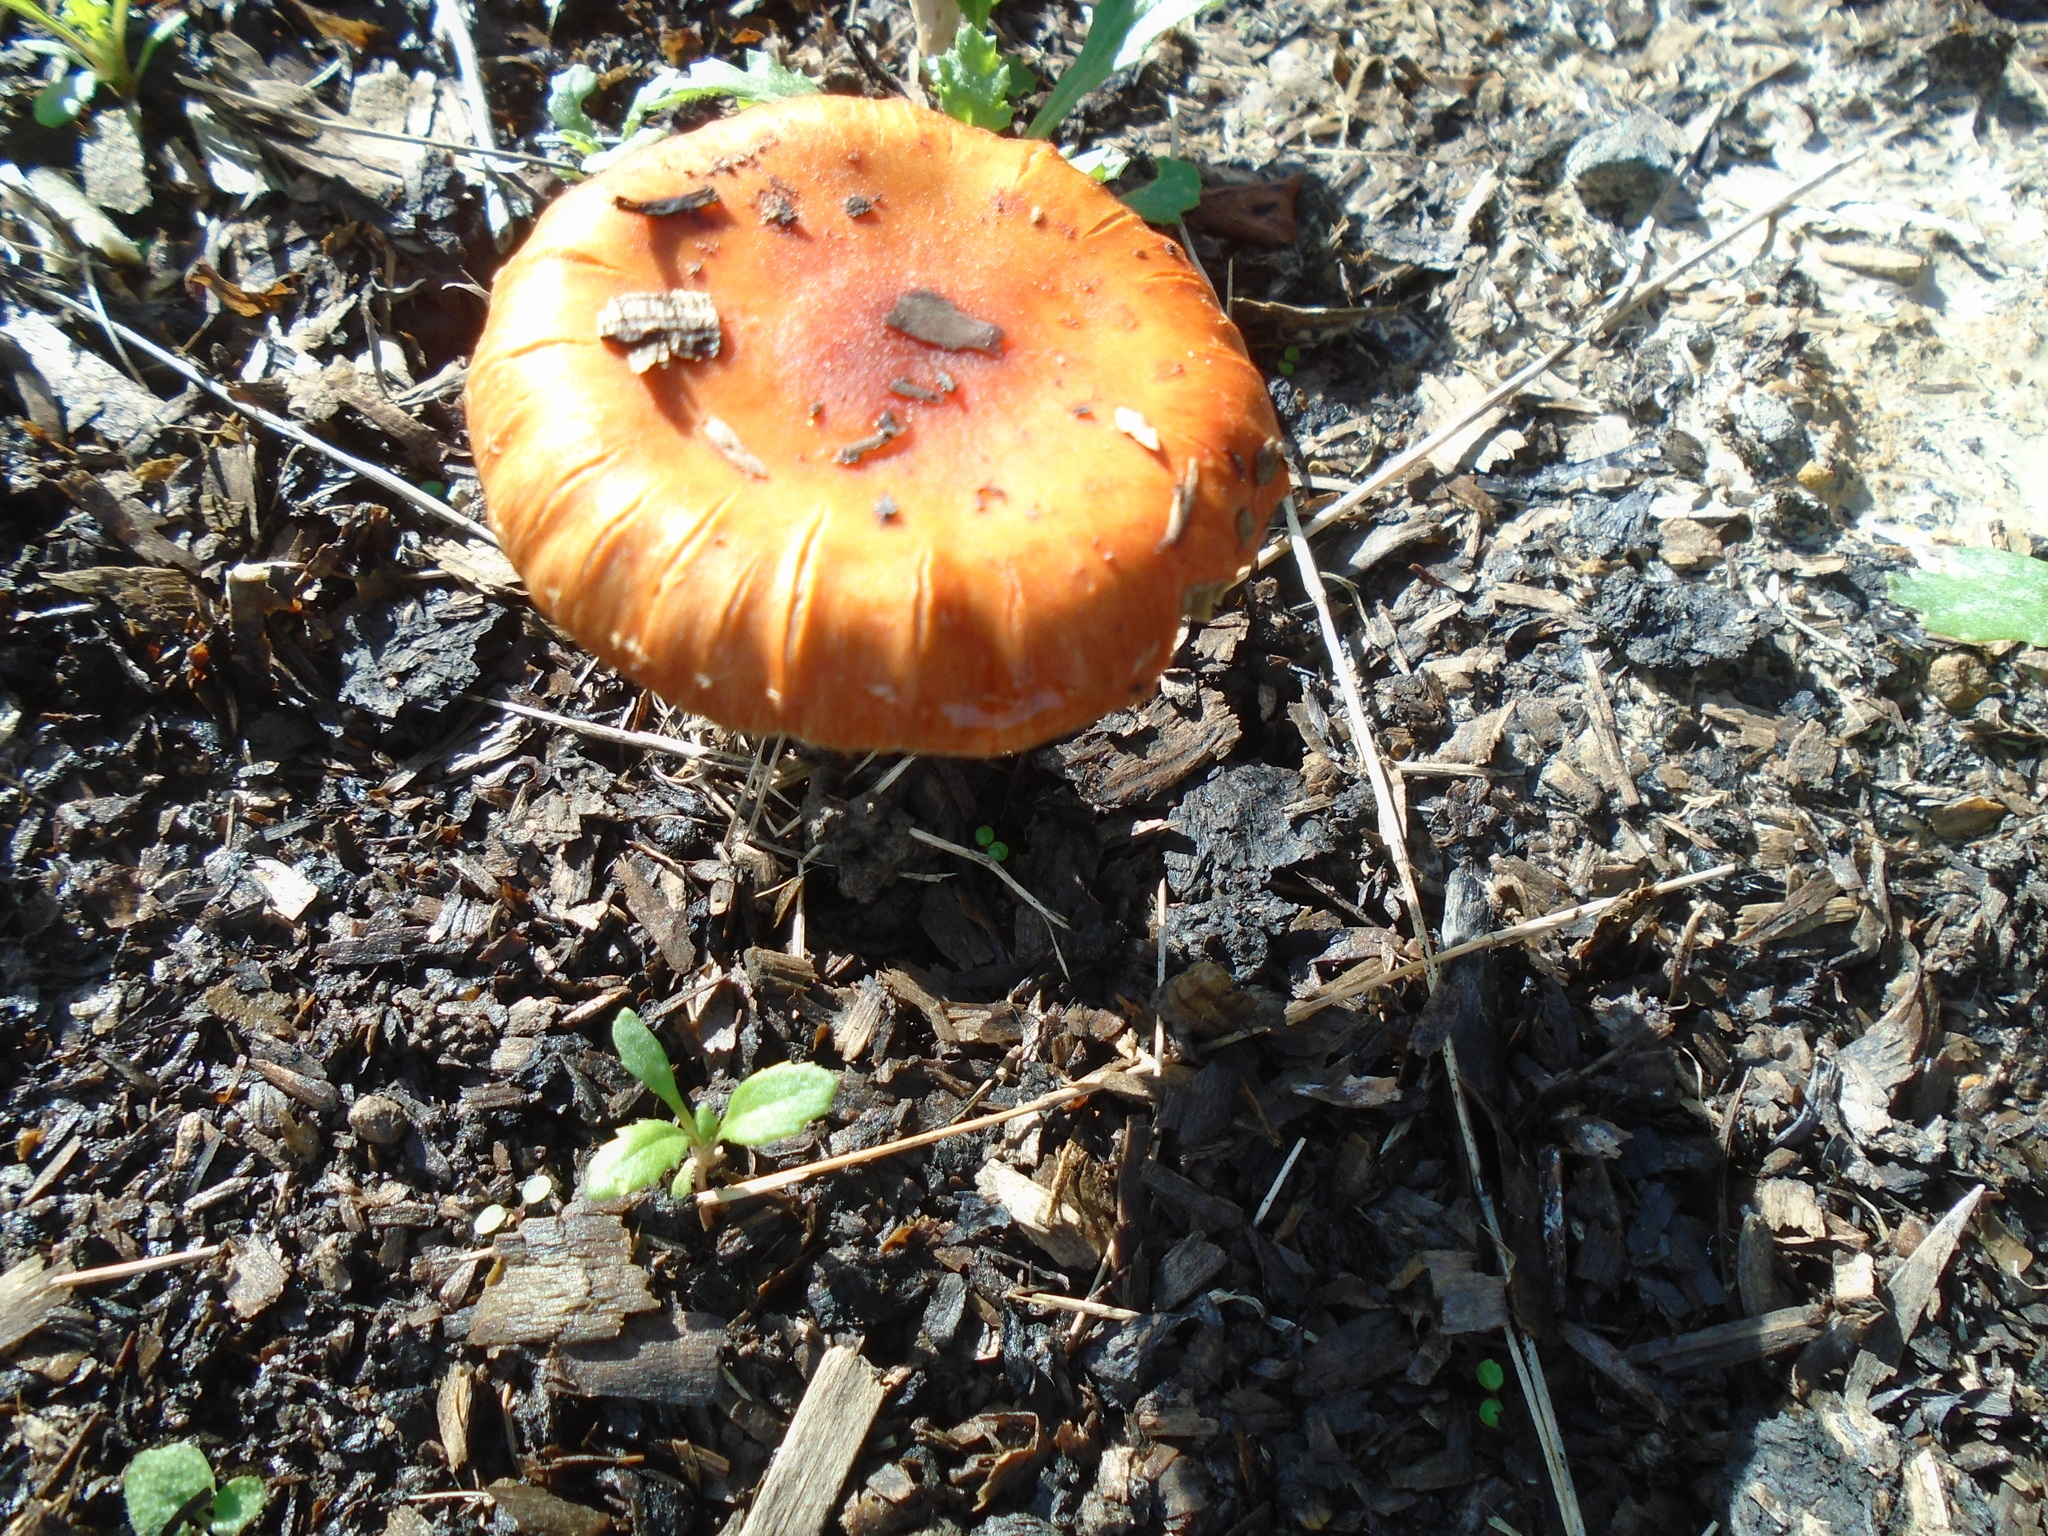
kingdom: Fungi
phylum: Basidiomycota
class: Agaricomycetes
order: Agaricales
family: Strophariaceae
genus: Leratiomyces
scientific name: Leratiomyces ceres
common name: Redlead roundhead
